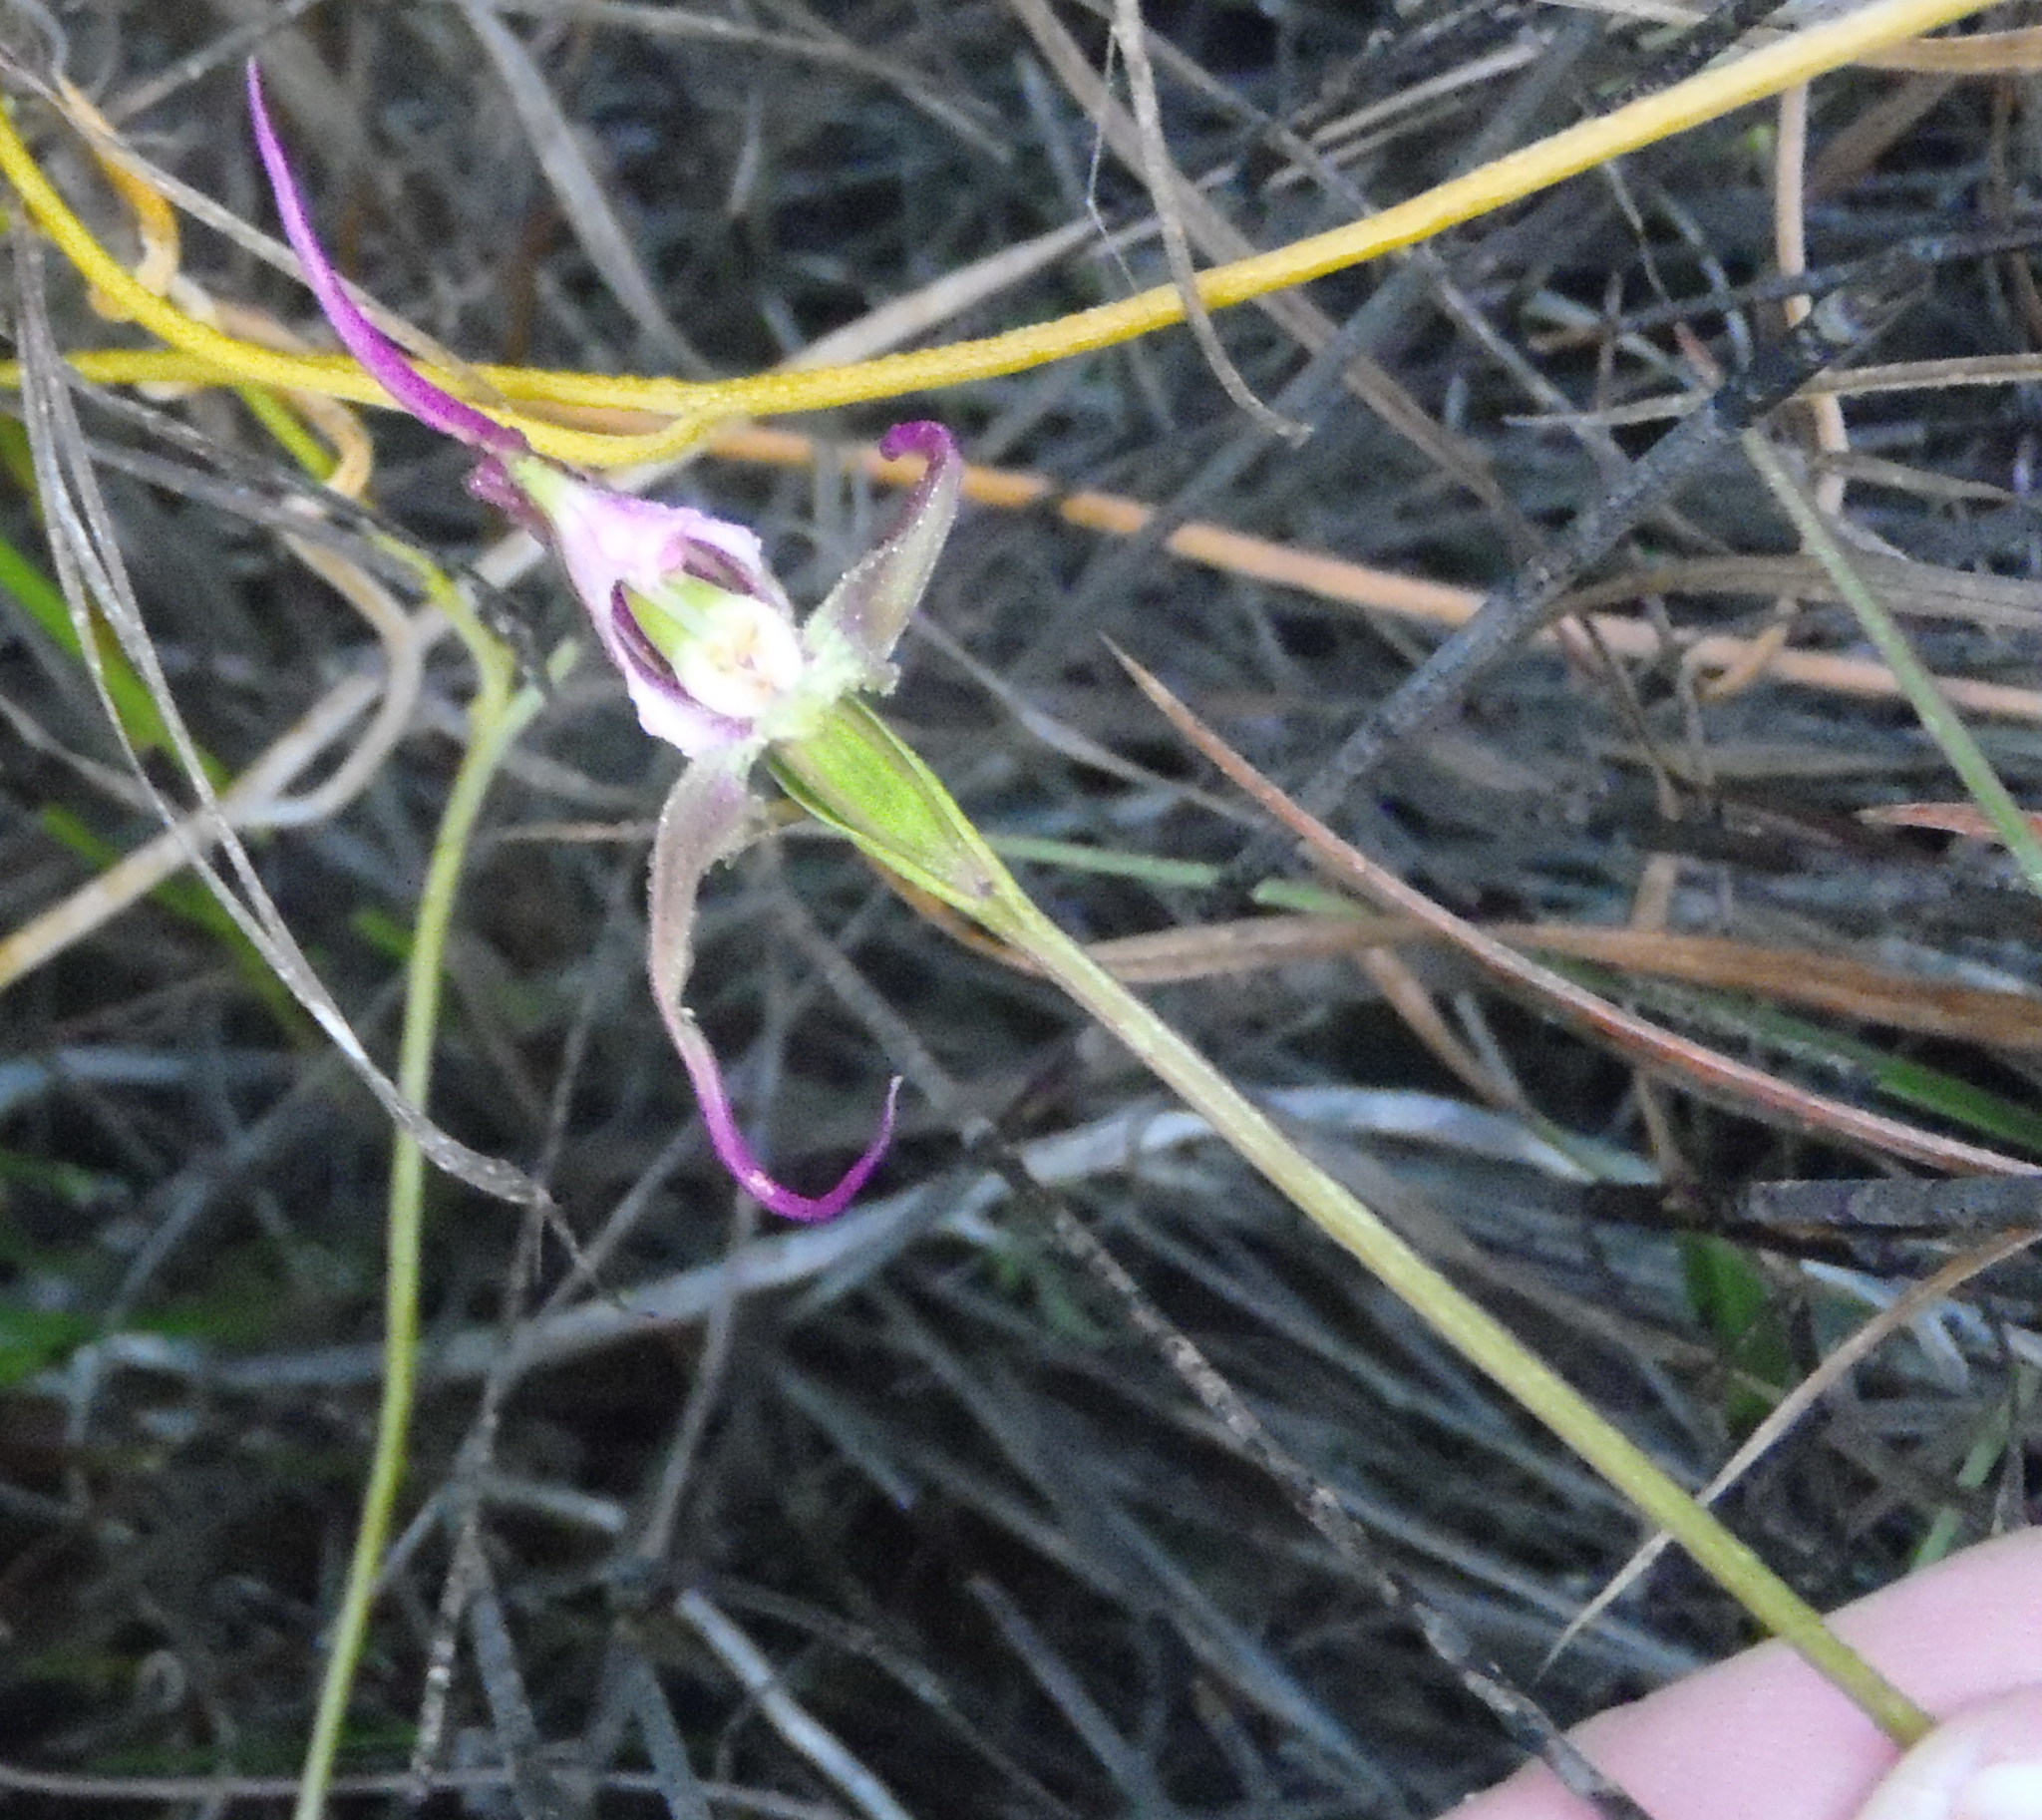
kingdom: Plantae
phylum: Tracheophyta
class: Liliopsida
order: Asparagales
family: Orchidaceae
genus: Disperis
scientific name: Disperis capensis
